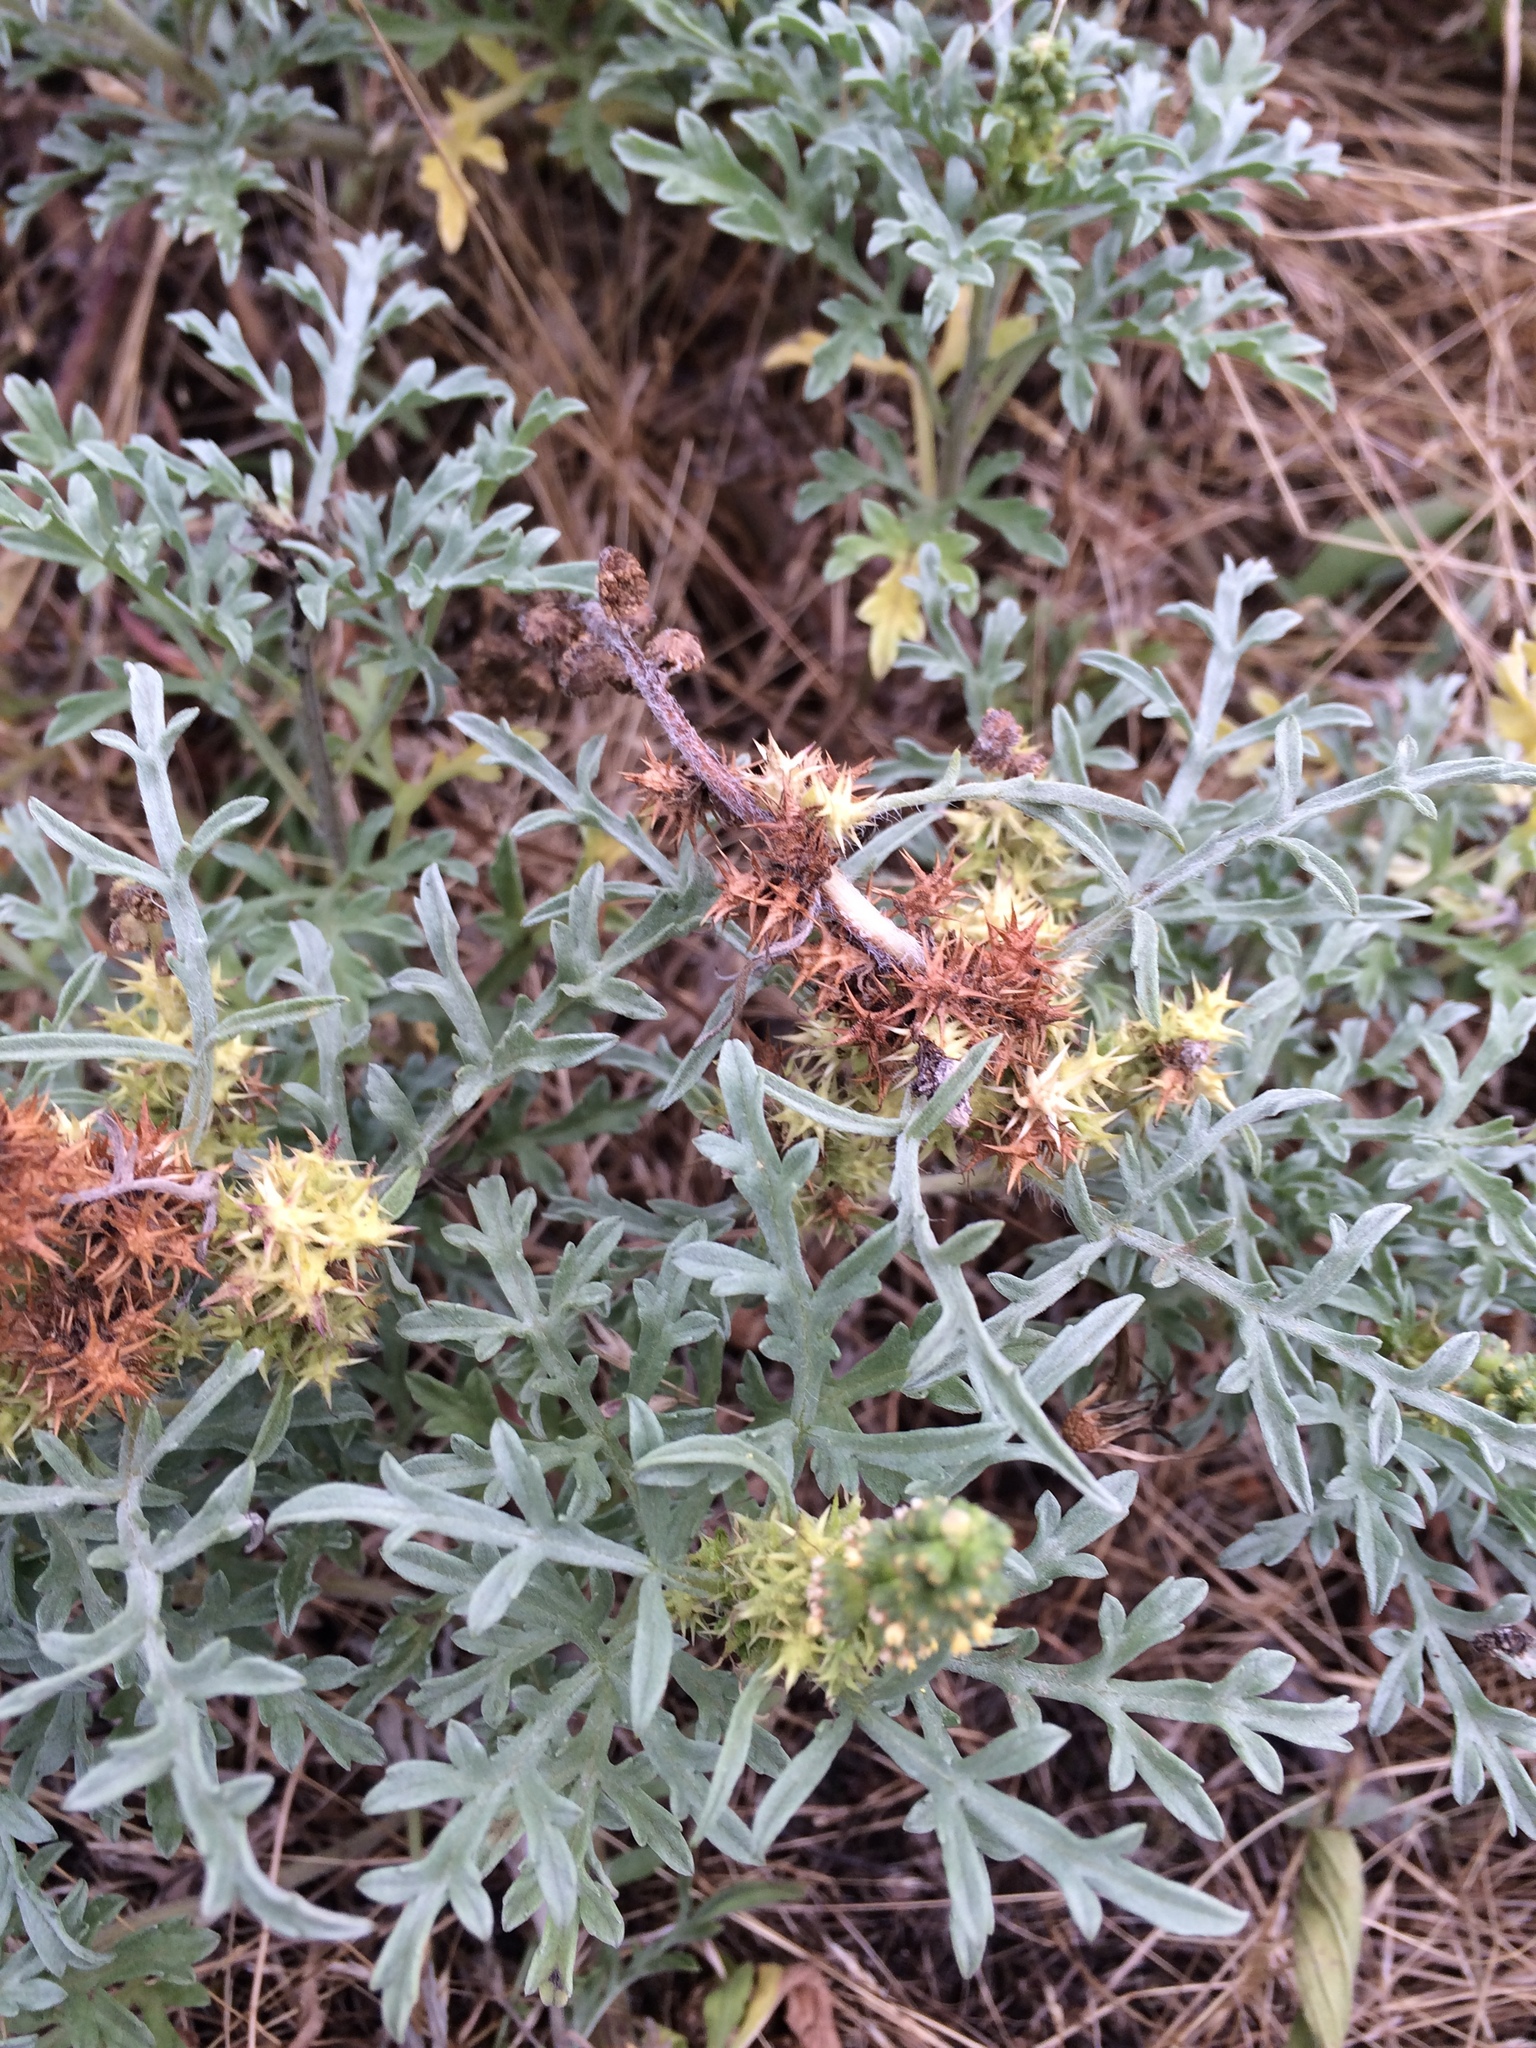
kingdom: Plantae
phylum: Tracheophyta
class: Magnoliopsida
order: Asterales
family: Asteraceae
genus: Ambrosia
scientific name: Ambrosia chamissonis
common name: Beachbur
